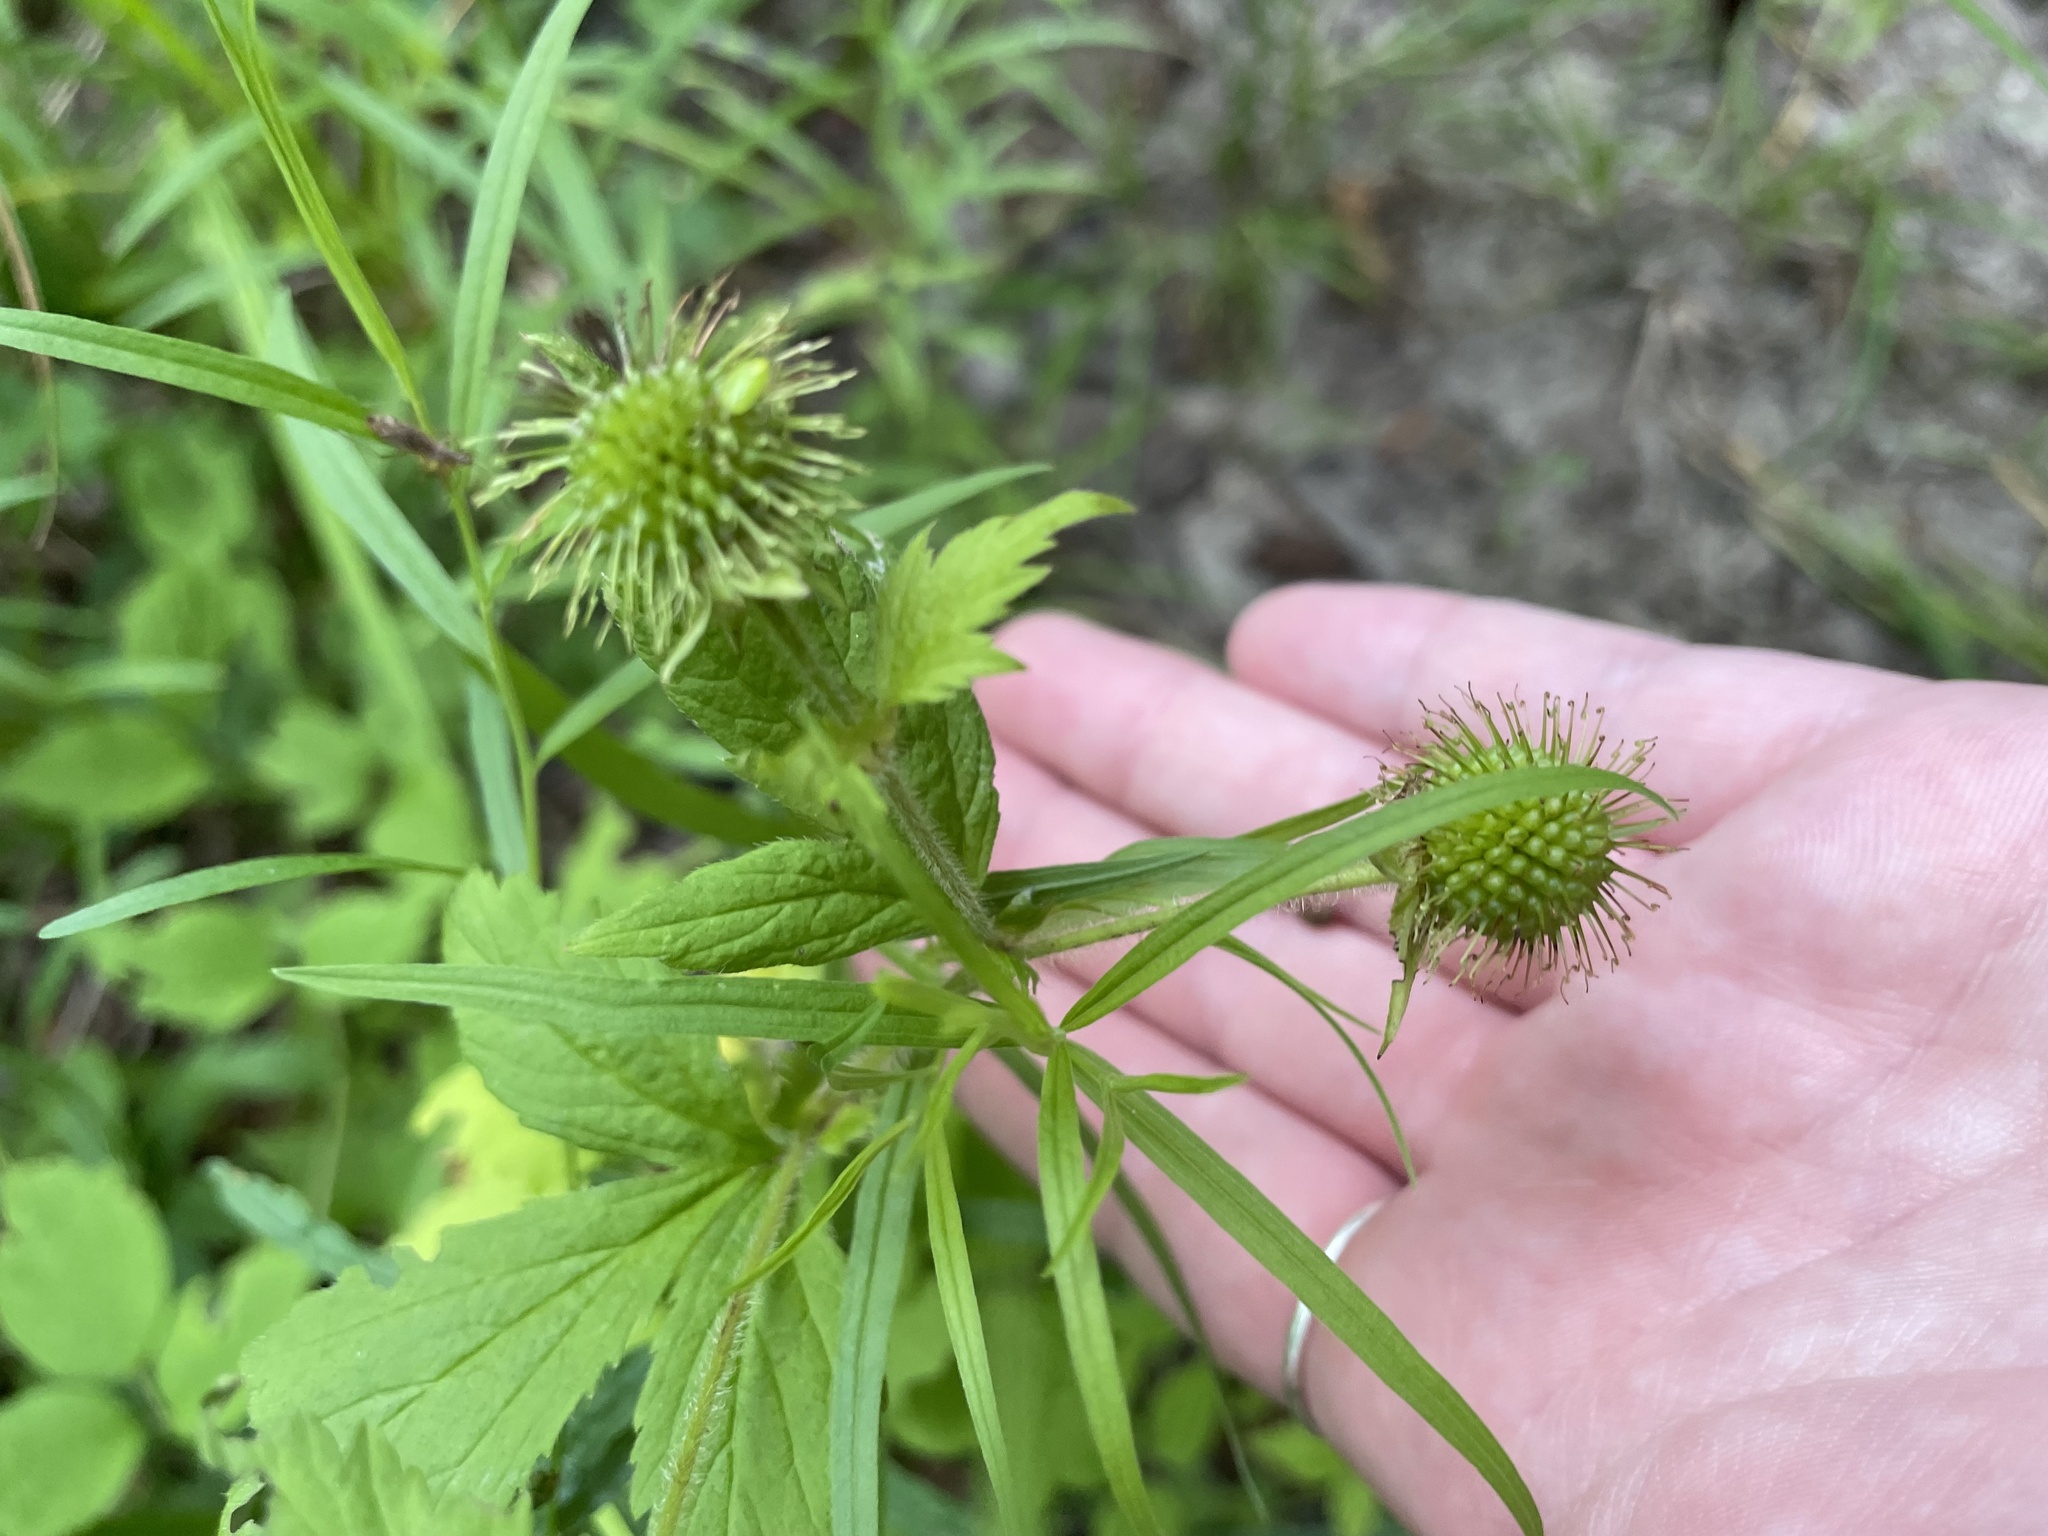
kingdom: Plantae
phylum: Tracheophyta
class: Magnoliopsida
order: Rosales
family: Rosaceae
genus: Geum
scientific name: Geum laciniatum
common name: Rough avens
